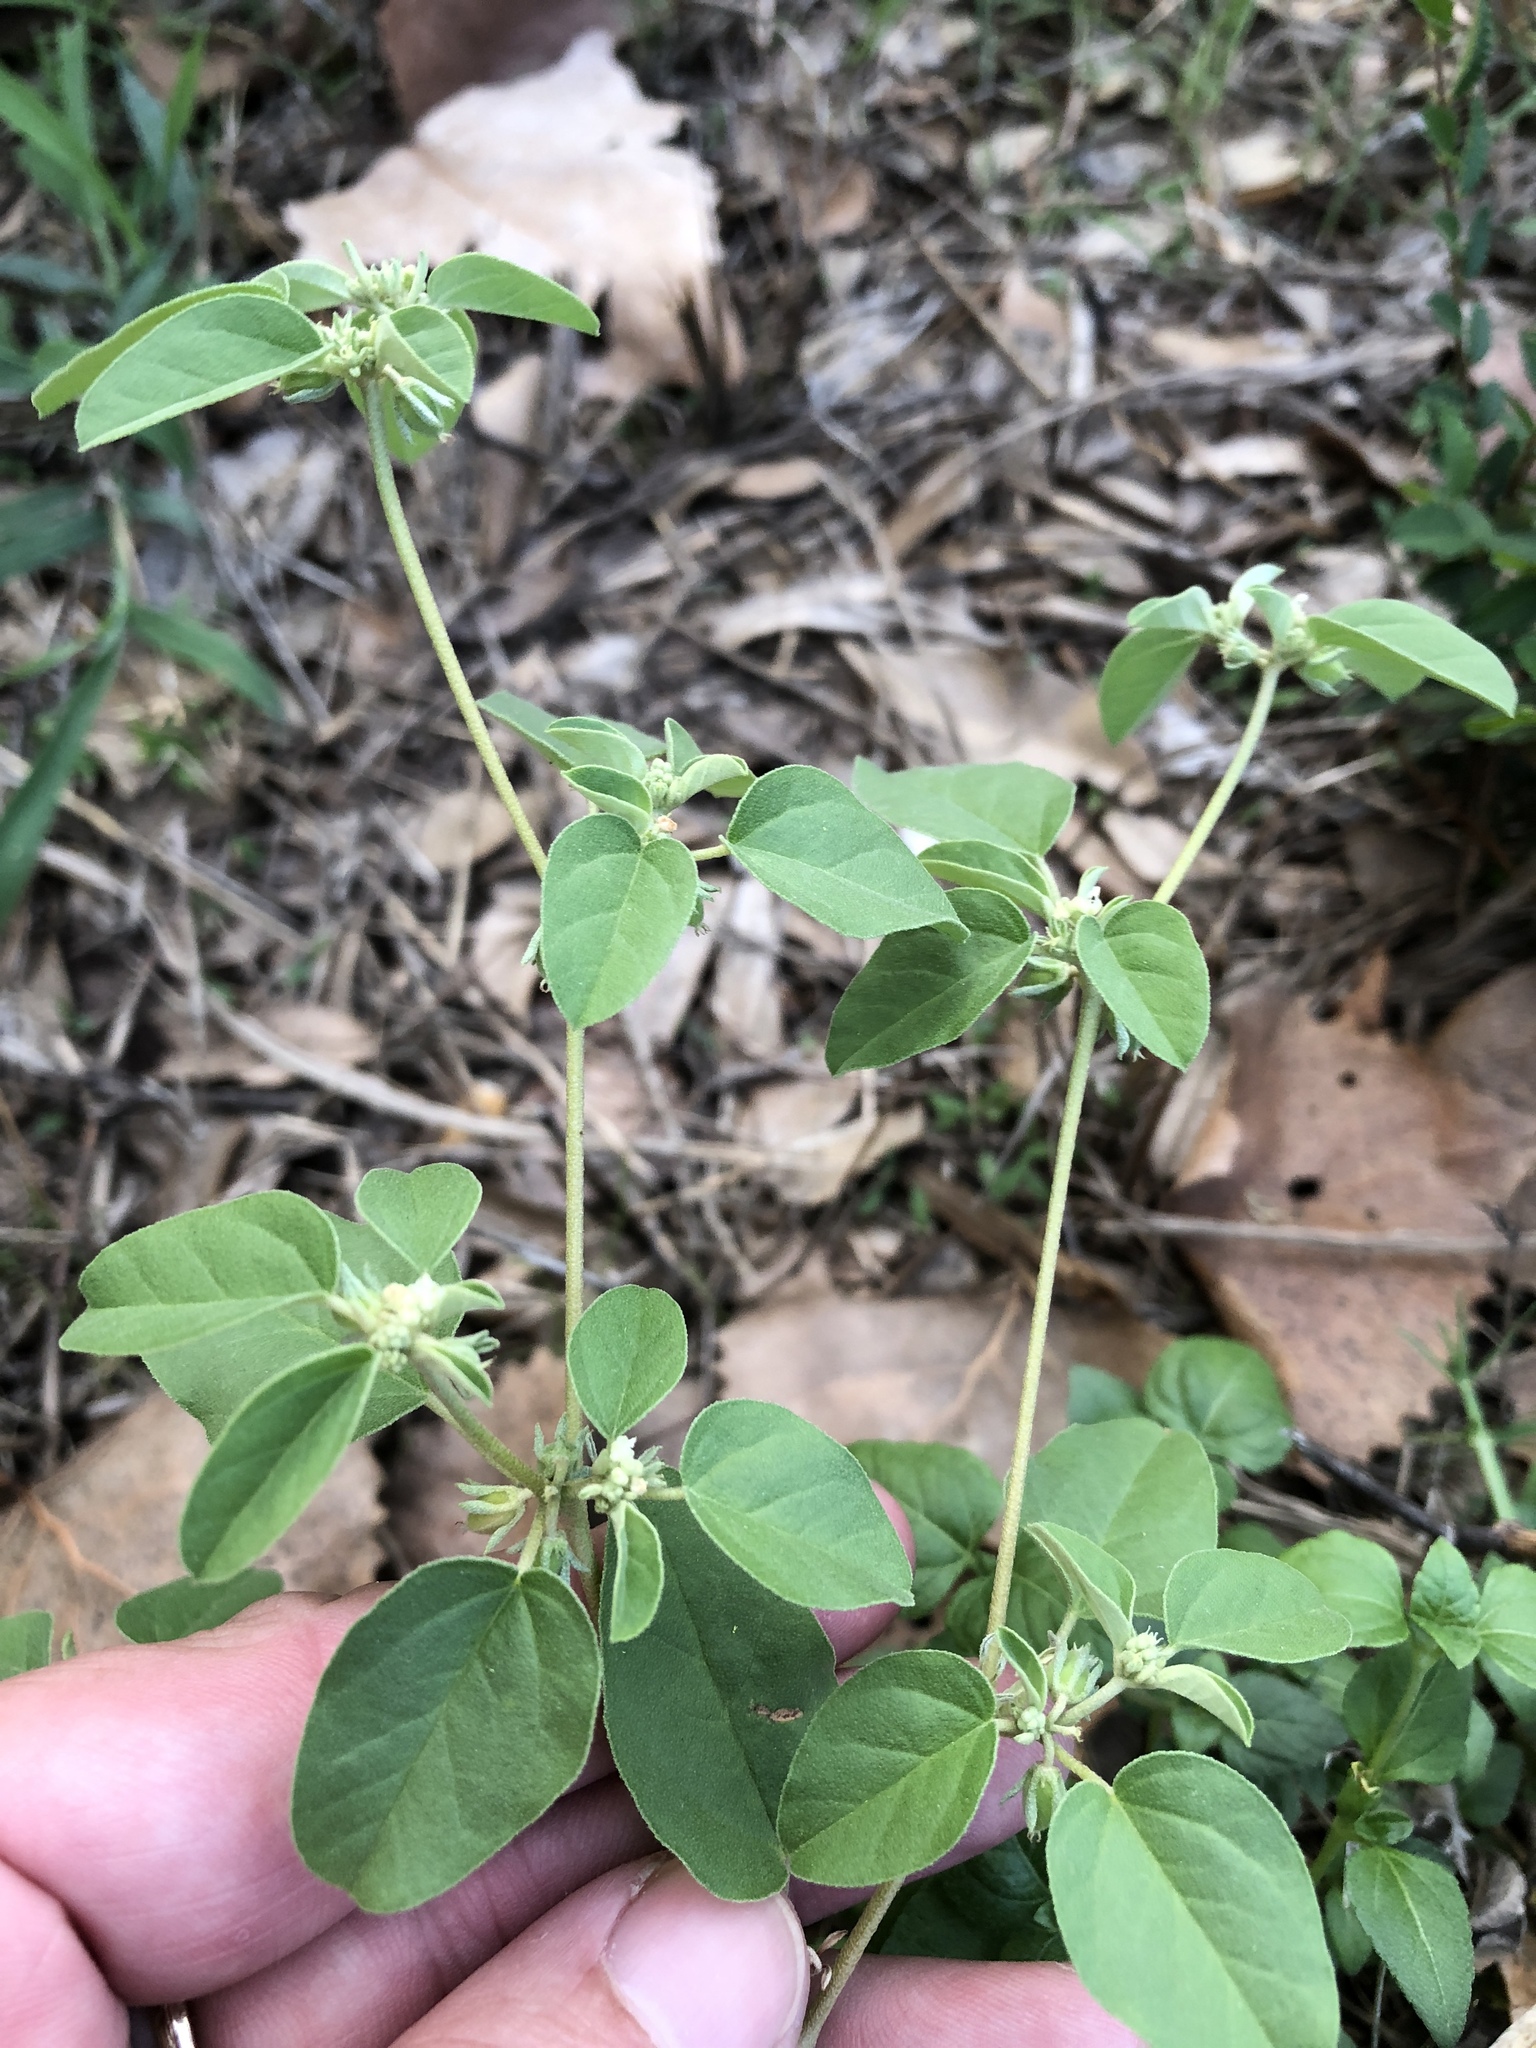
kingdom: Plantae
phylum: Tracheophyta
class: Magnoliopsida
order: Malpighiales
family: Euphorbiaceae
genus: Croton
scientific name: Croton monanthogynus
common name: One-seed croton
